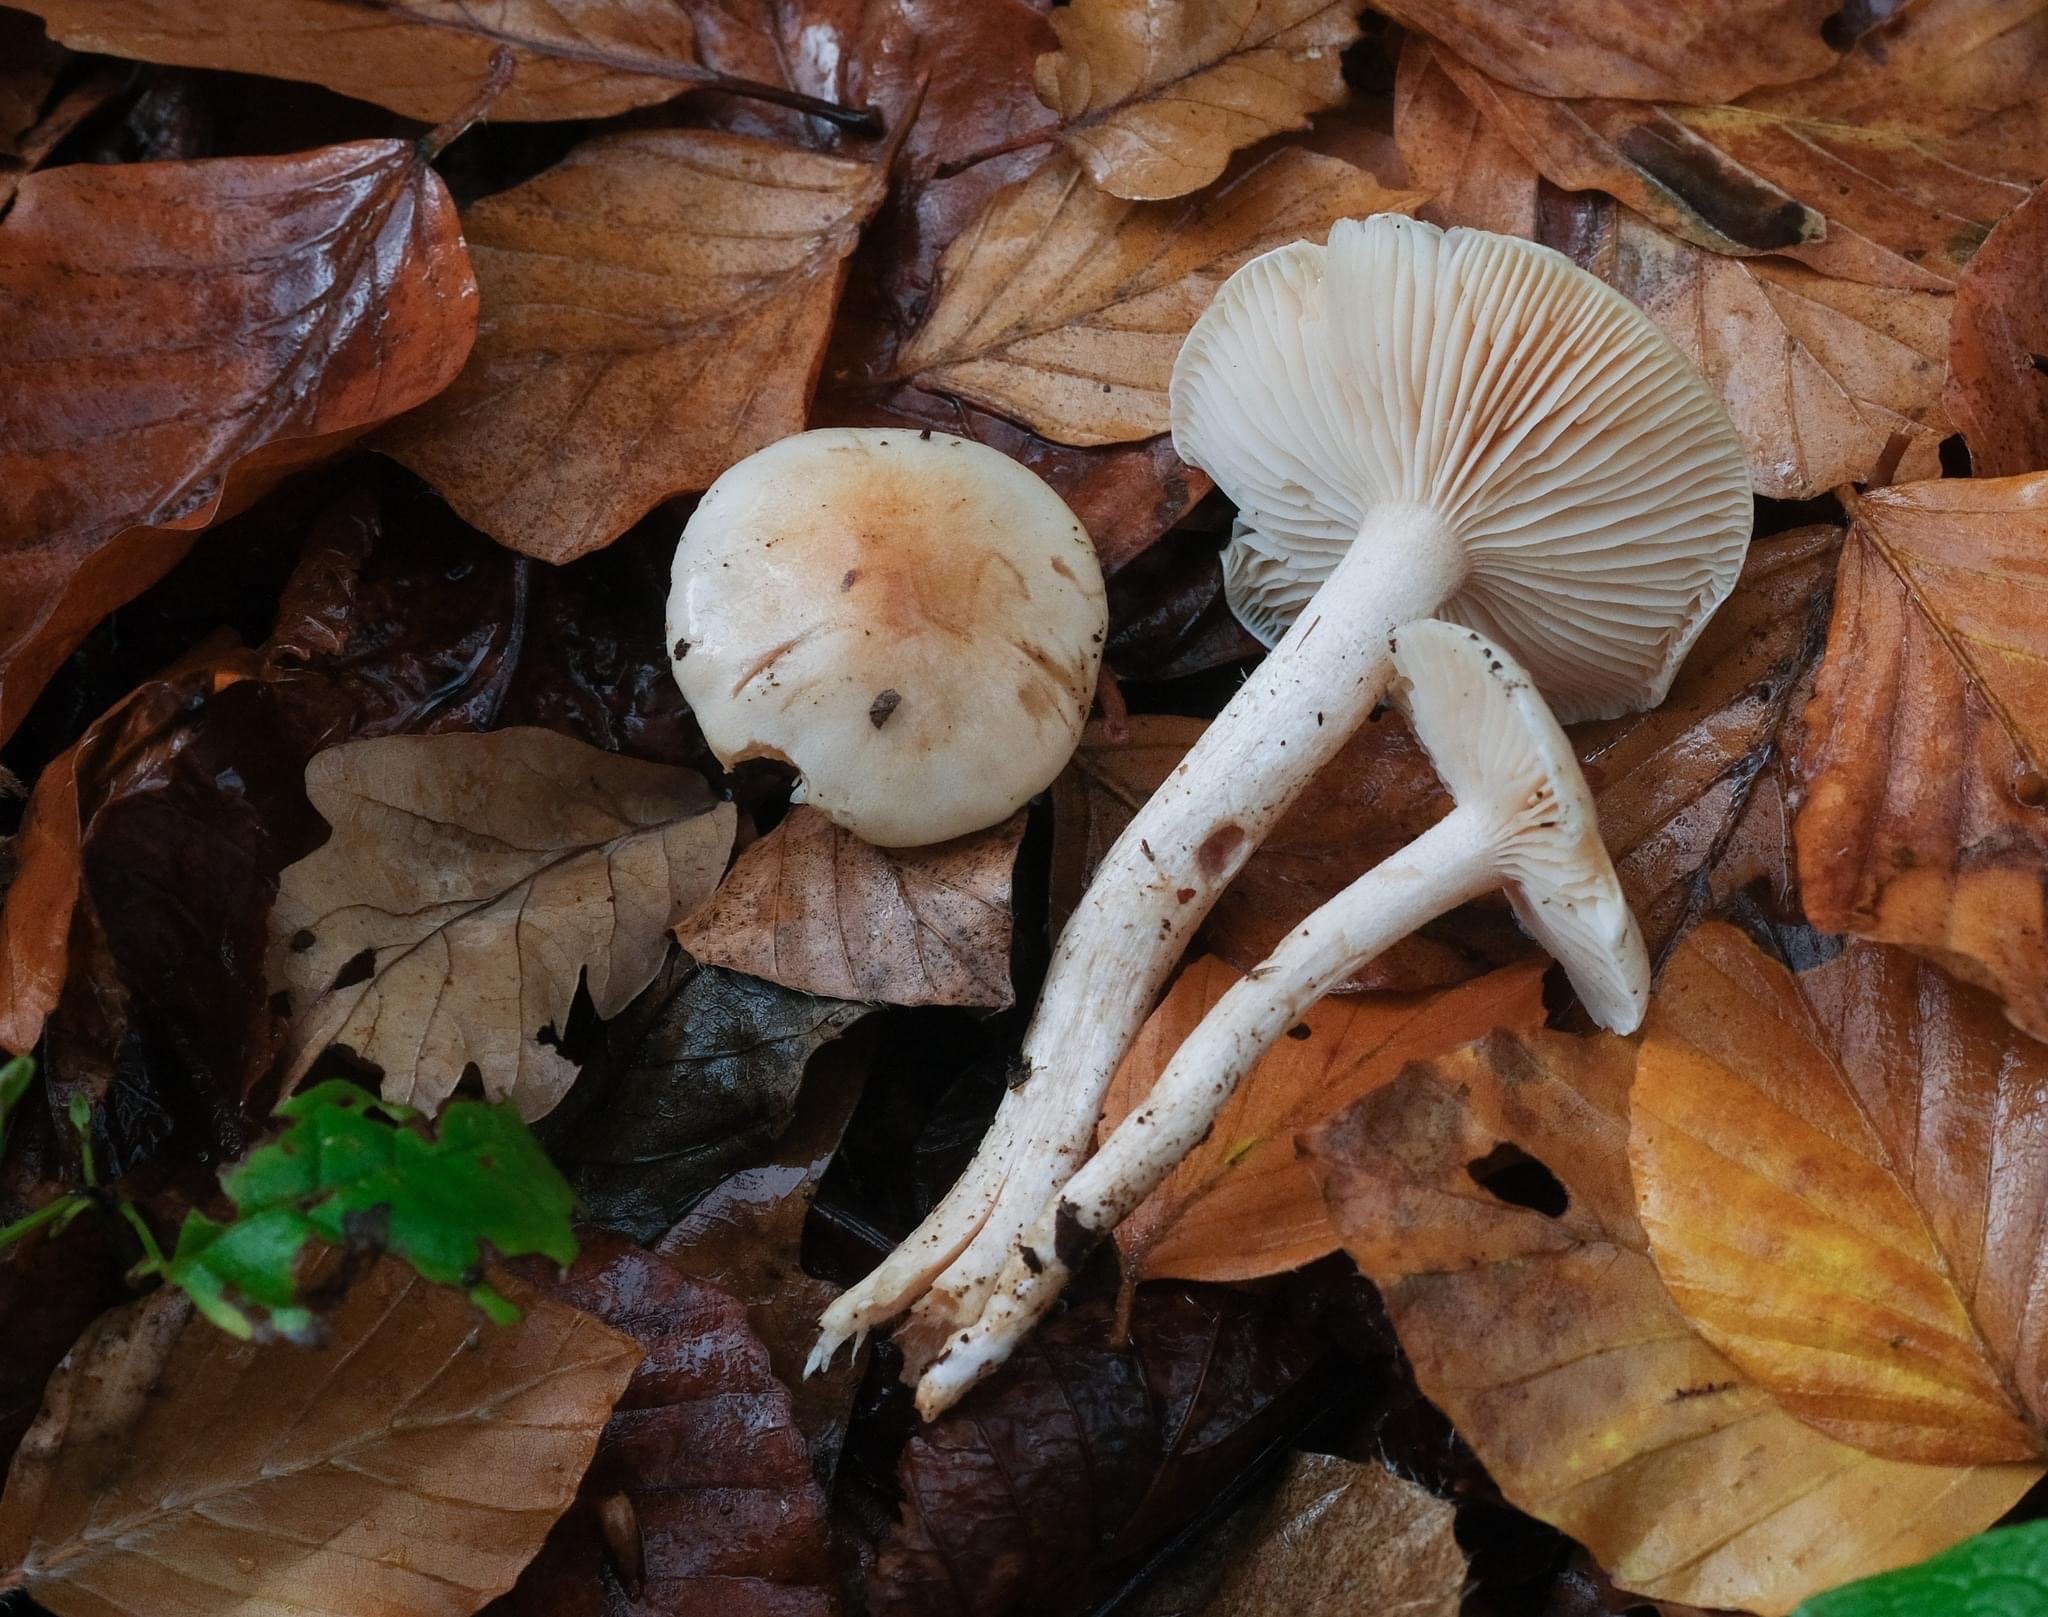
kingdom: Fungi
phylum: Basidiomycota
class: Agaricomycetes
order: Agaricales
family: Hygrophoraceae
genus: Hygrophorus
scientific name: Hygrophorus unicolor
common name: Twotone woodwax
